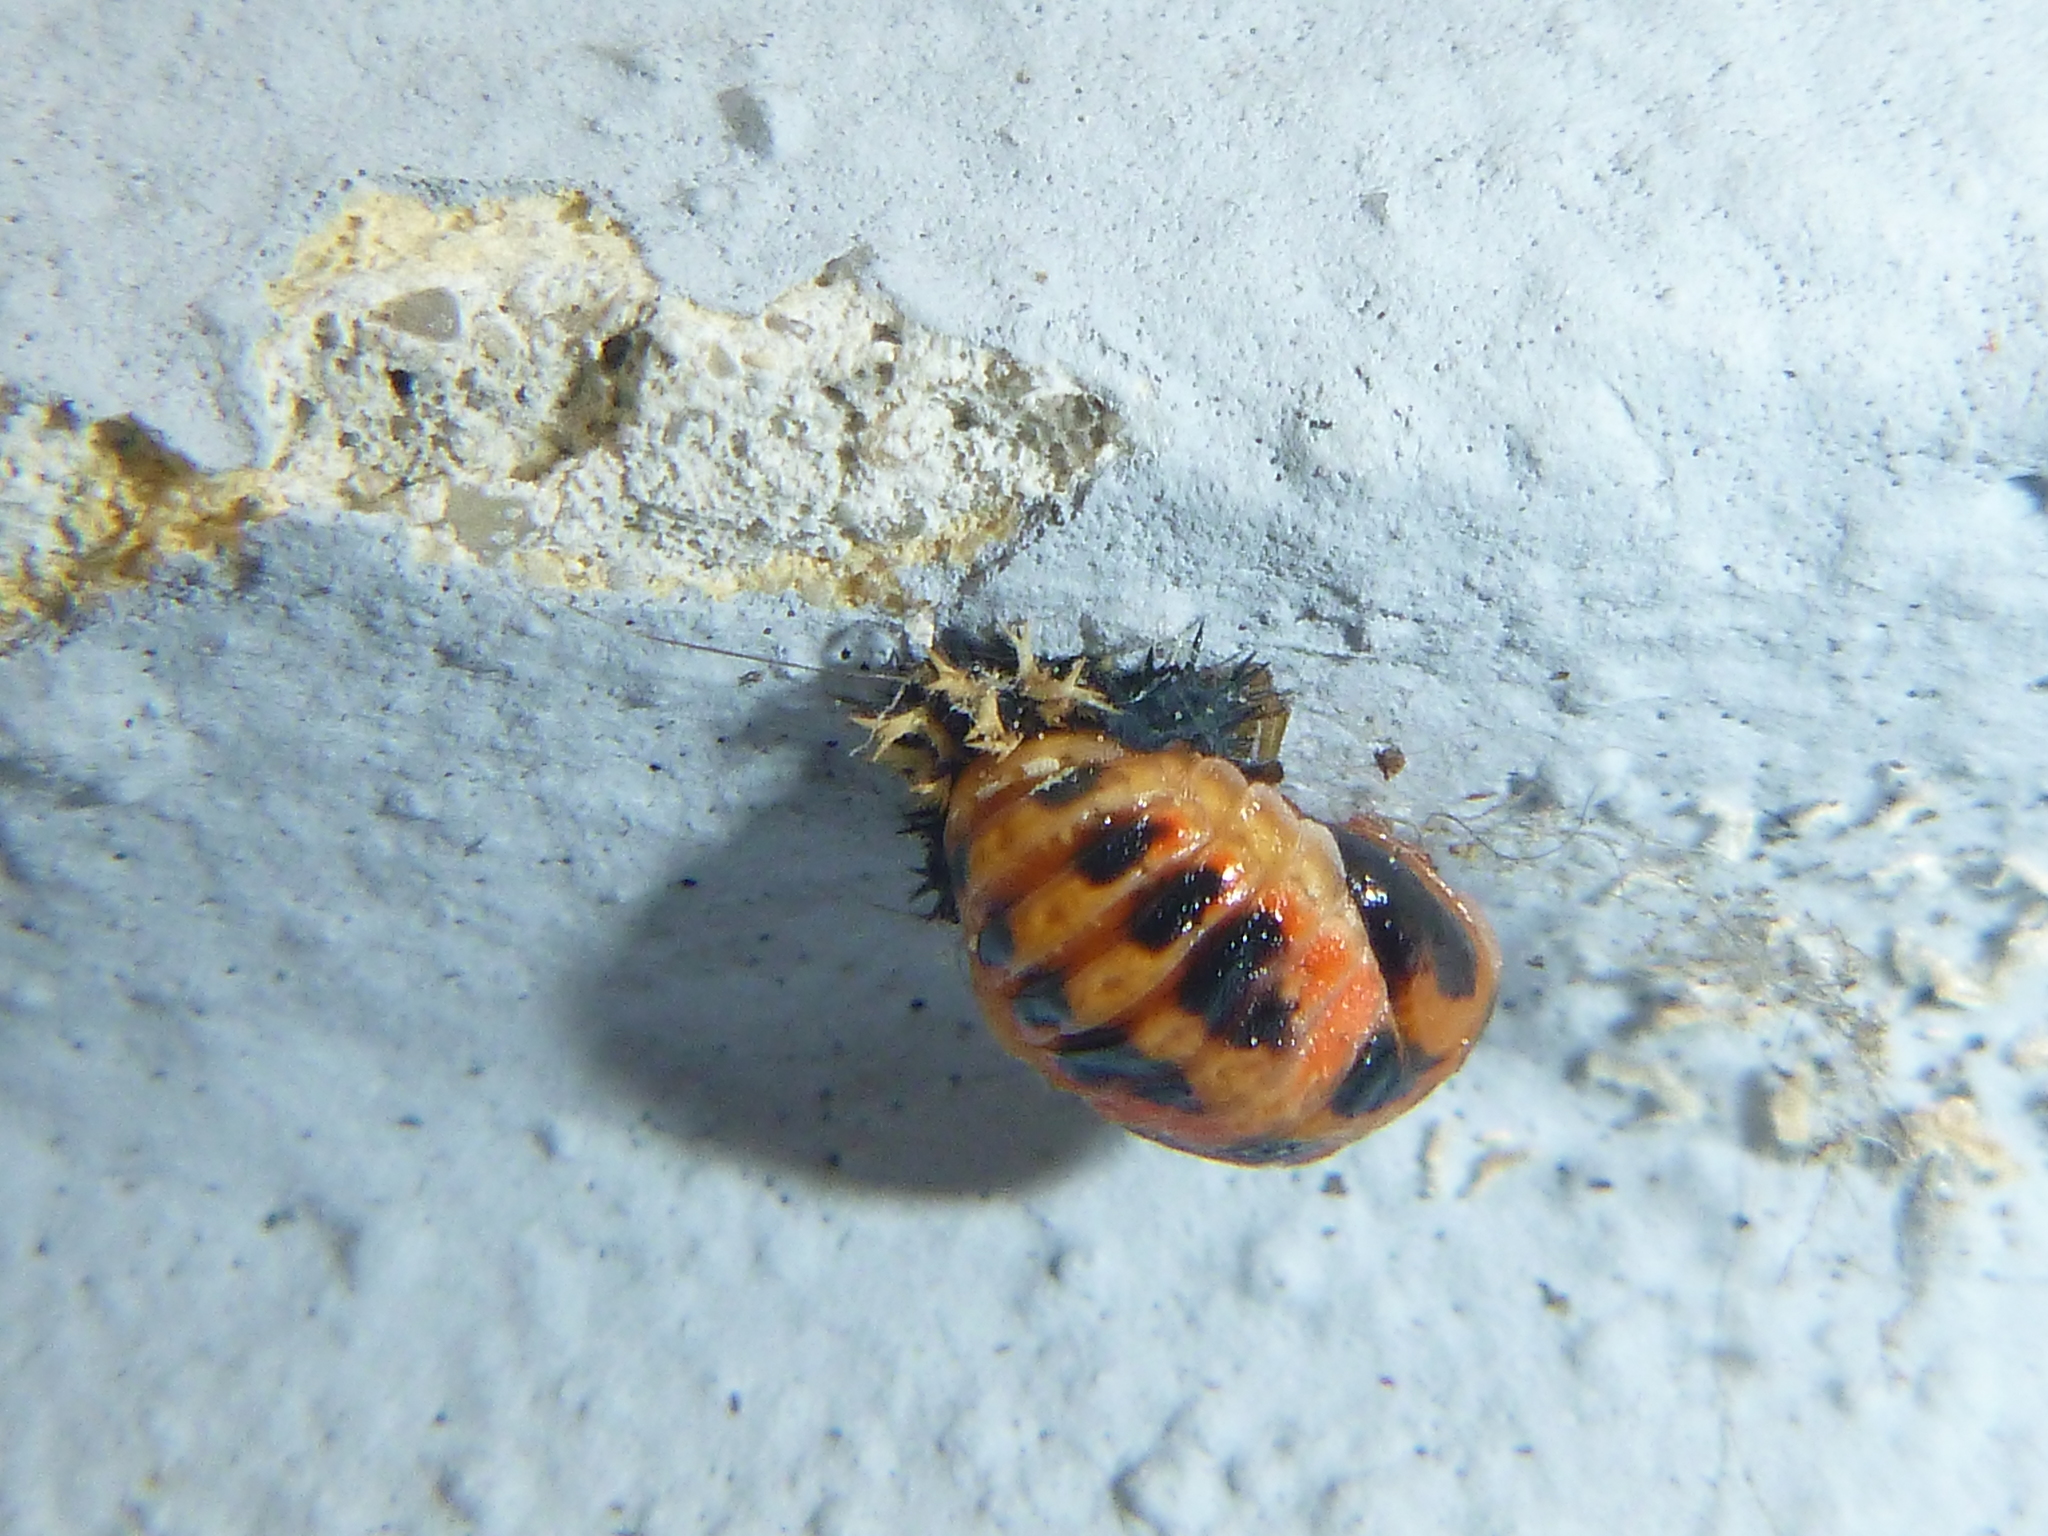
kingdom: Animalia
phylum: Arthropoda
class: Insecta
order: Coleoptera
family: Coccinellidae
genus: Harmonia
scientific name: Harmonia axyridis
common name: Harlequin ladybird
